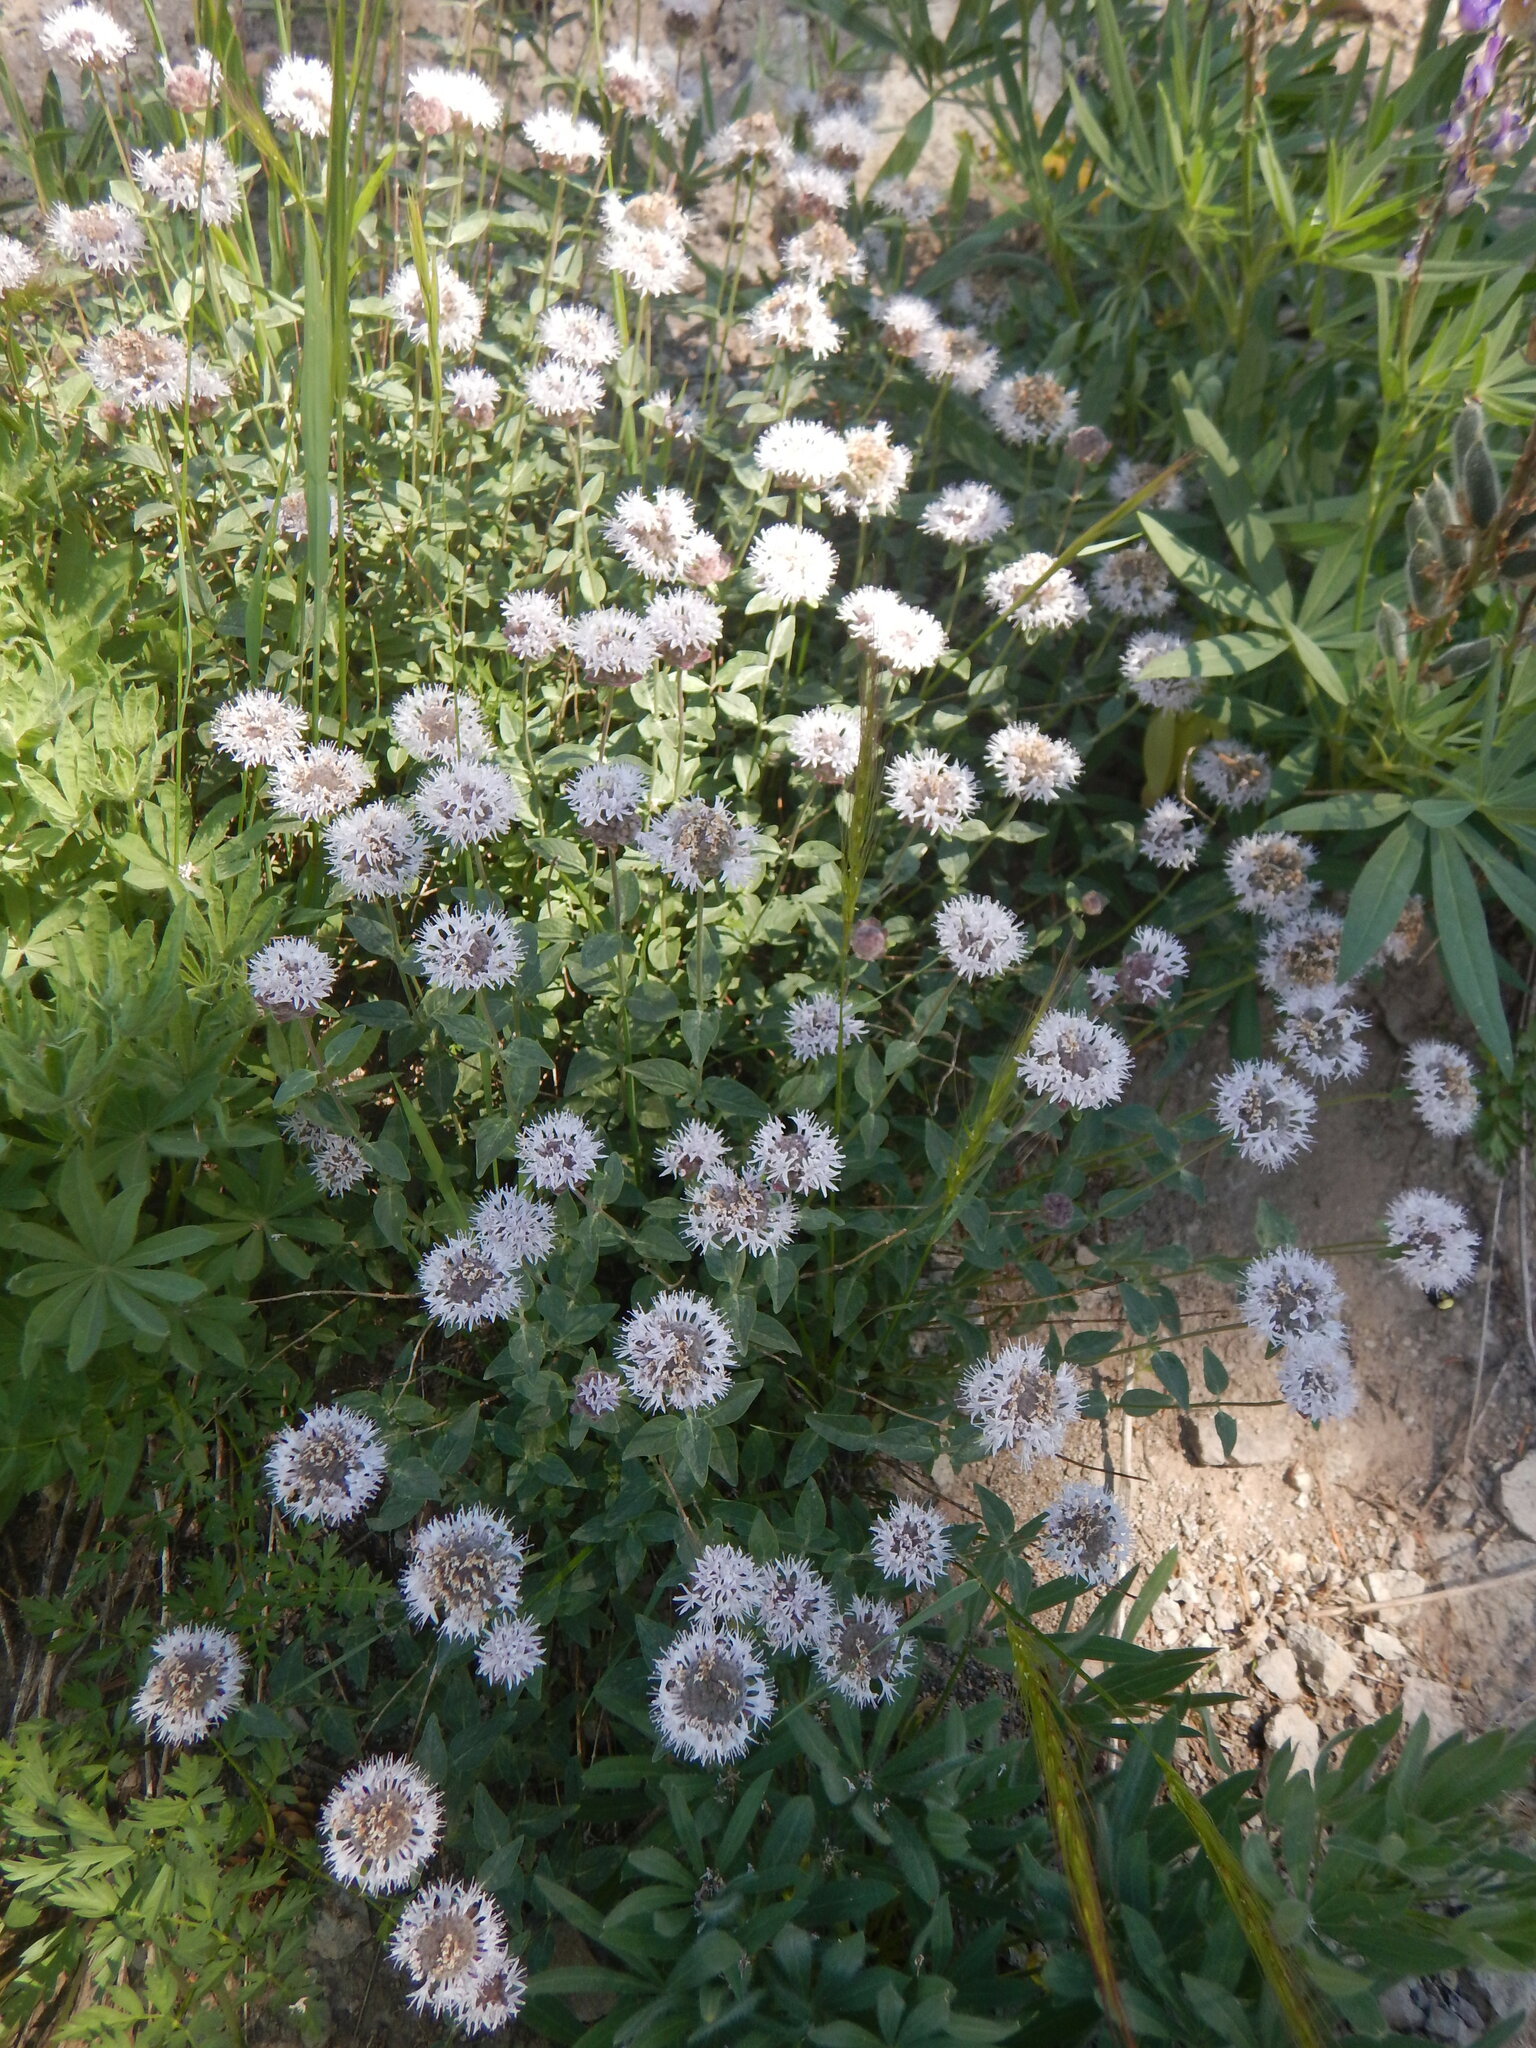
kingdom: Plantae
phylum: Tracheophyta
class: Magnoliopsida
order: Lamiales
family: Lamiaceae
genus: Monardella
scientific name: Monardella odoratissima
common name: Pacific monardella
